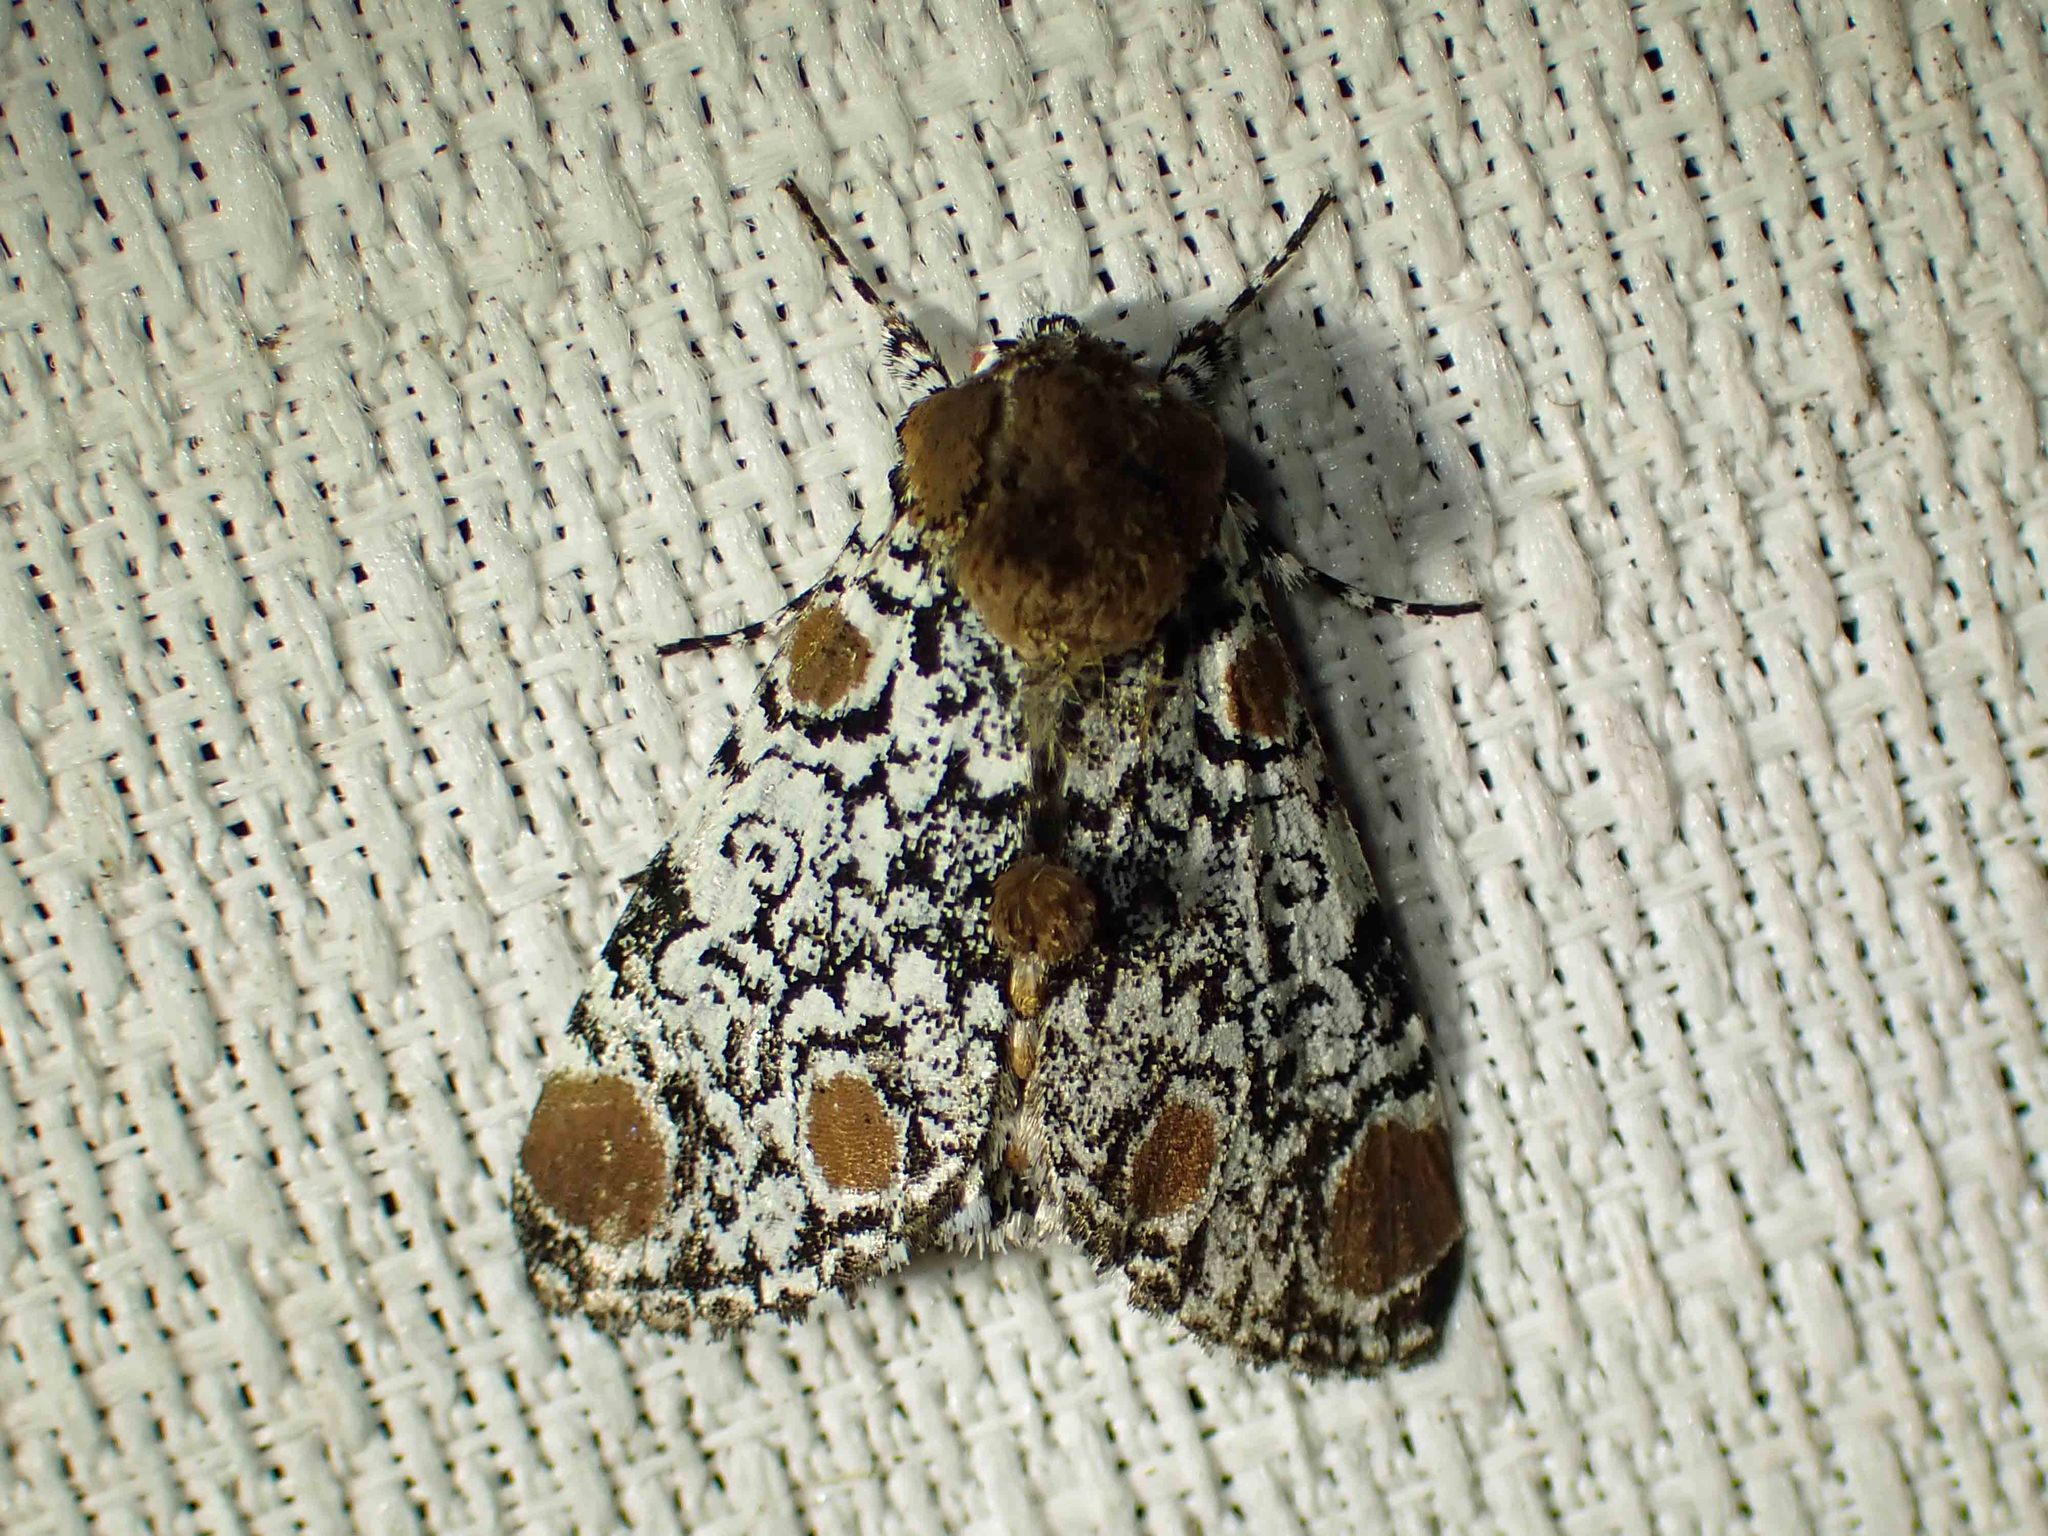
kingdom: Animalia
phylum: Arthropoda
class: Insecta
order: Lepidoptera
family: Noctuidae
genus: Harrisimemna
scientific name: Harrisimemna trisignata
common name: Harris threespot
